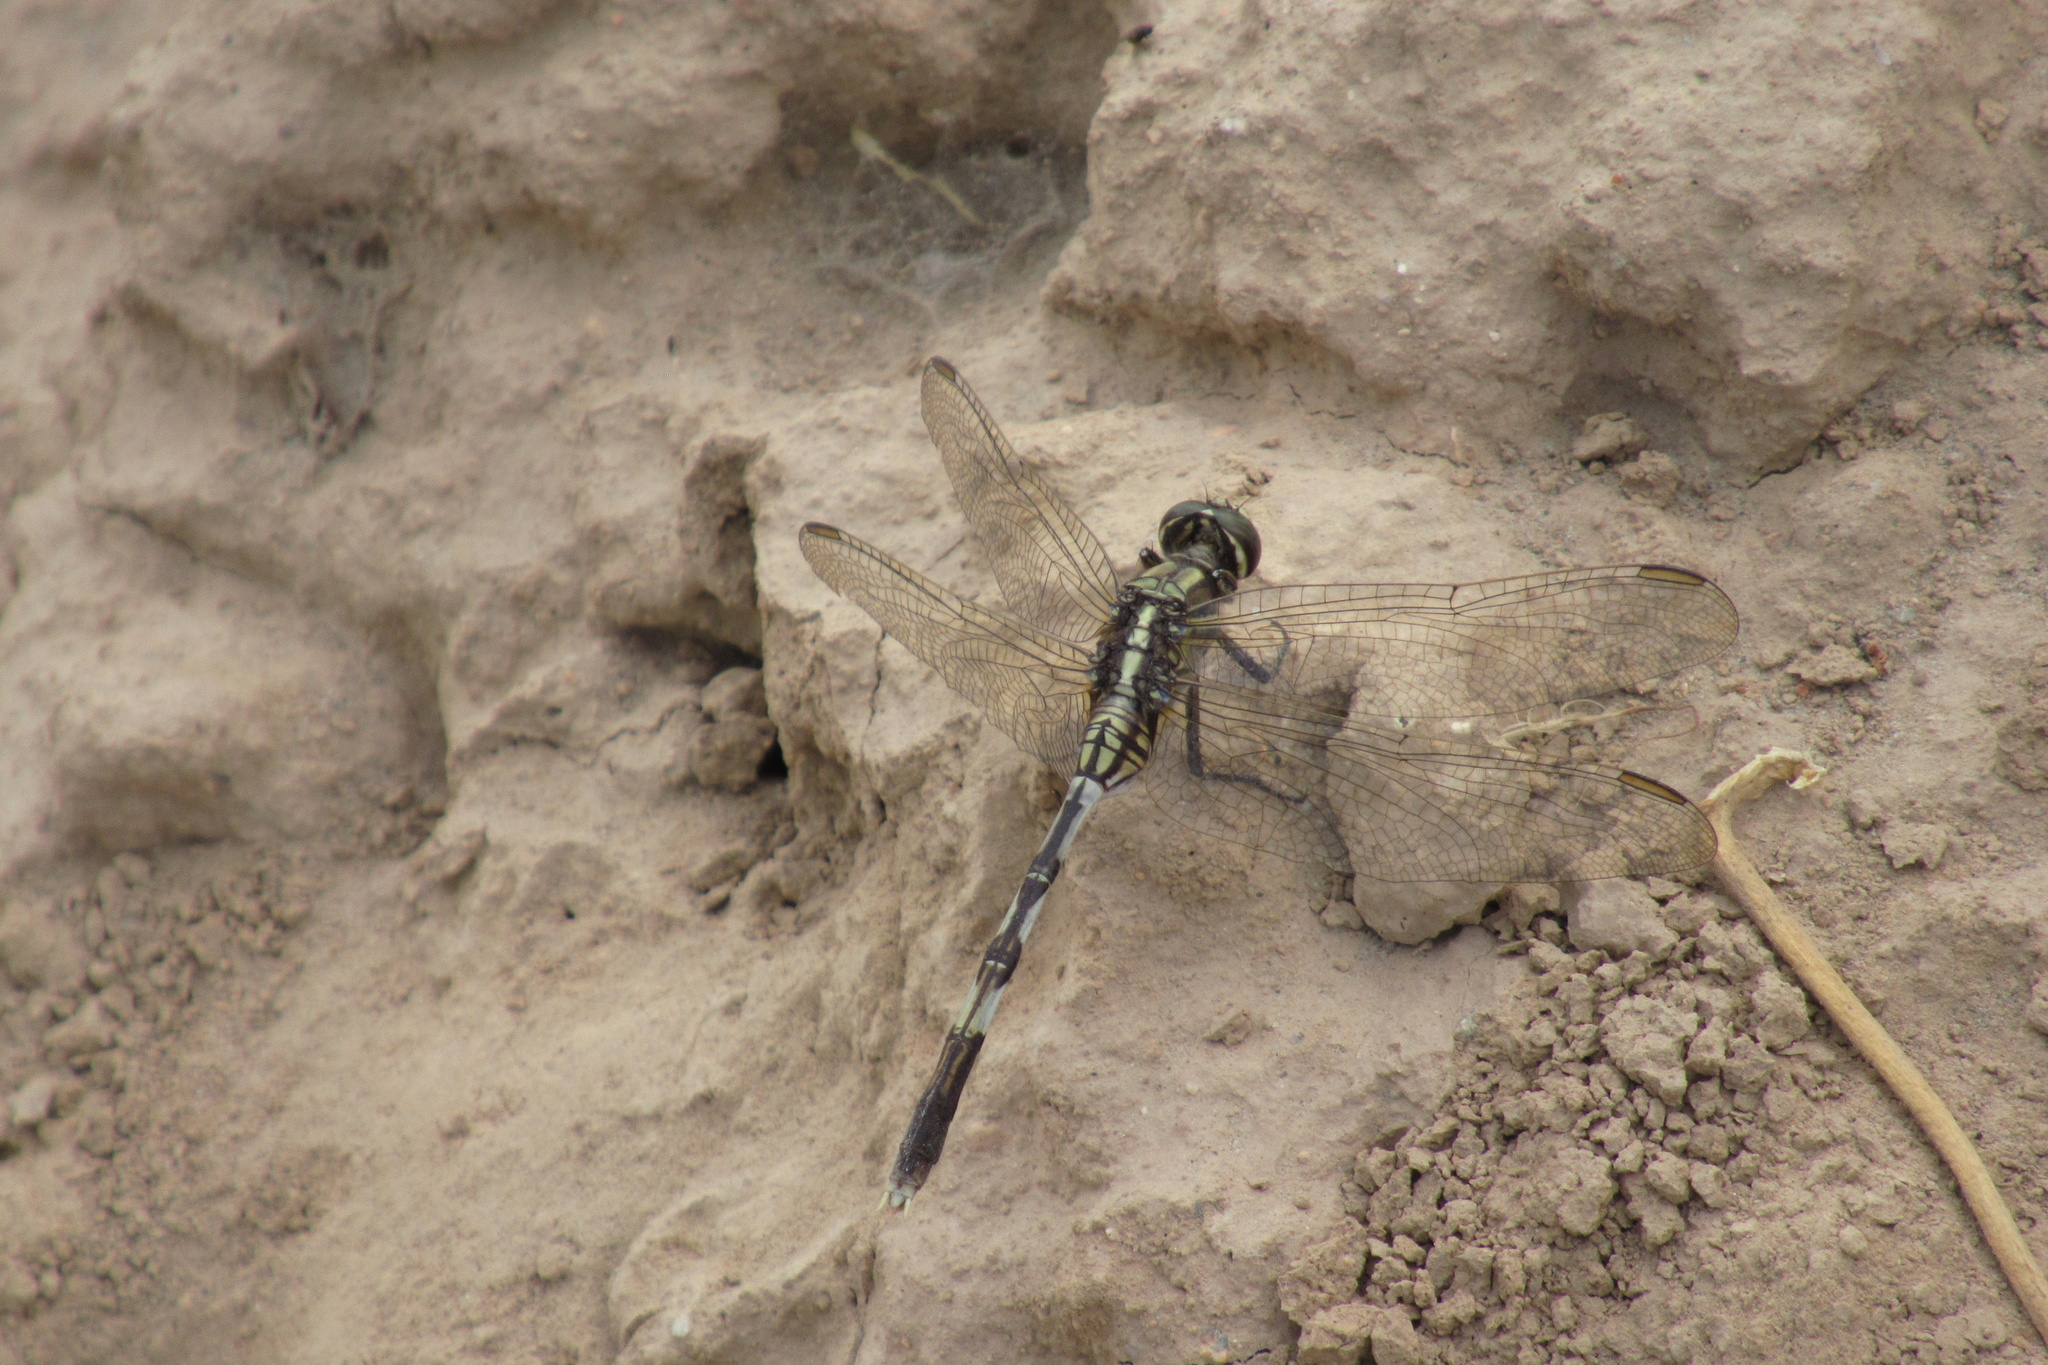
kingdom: Animalia
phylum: Arthropoda
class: Insecta
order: Odonata
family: Libellulidae
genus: Orthetrum
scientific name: Orthetrum sabina
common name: Slender skimmer
